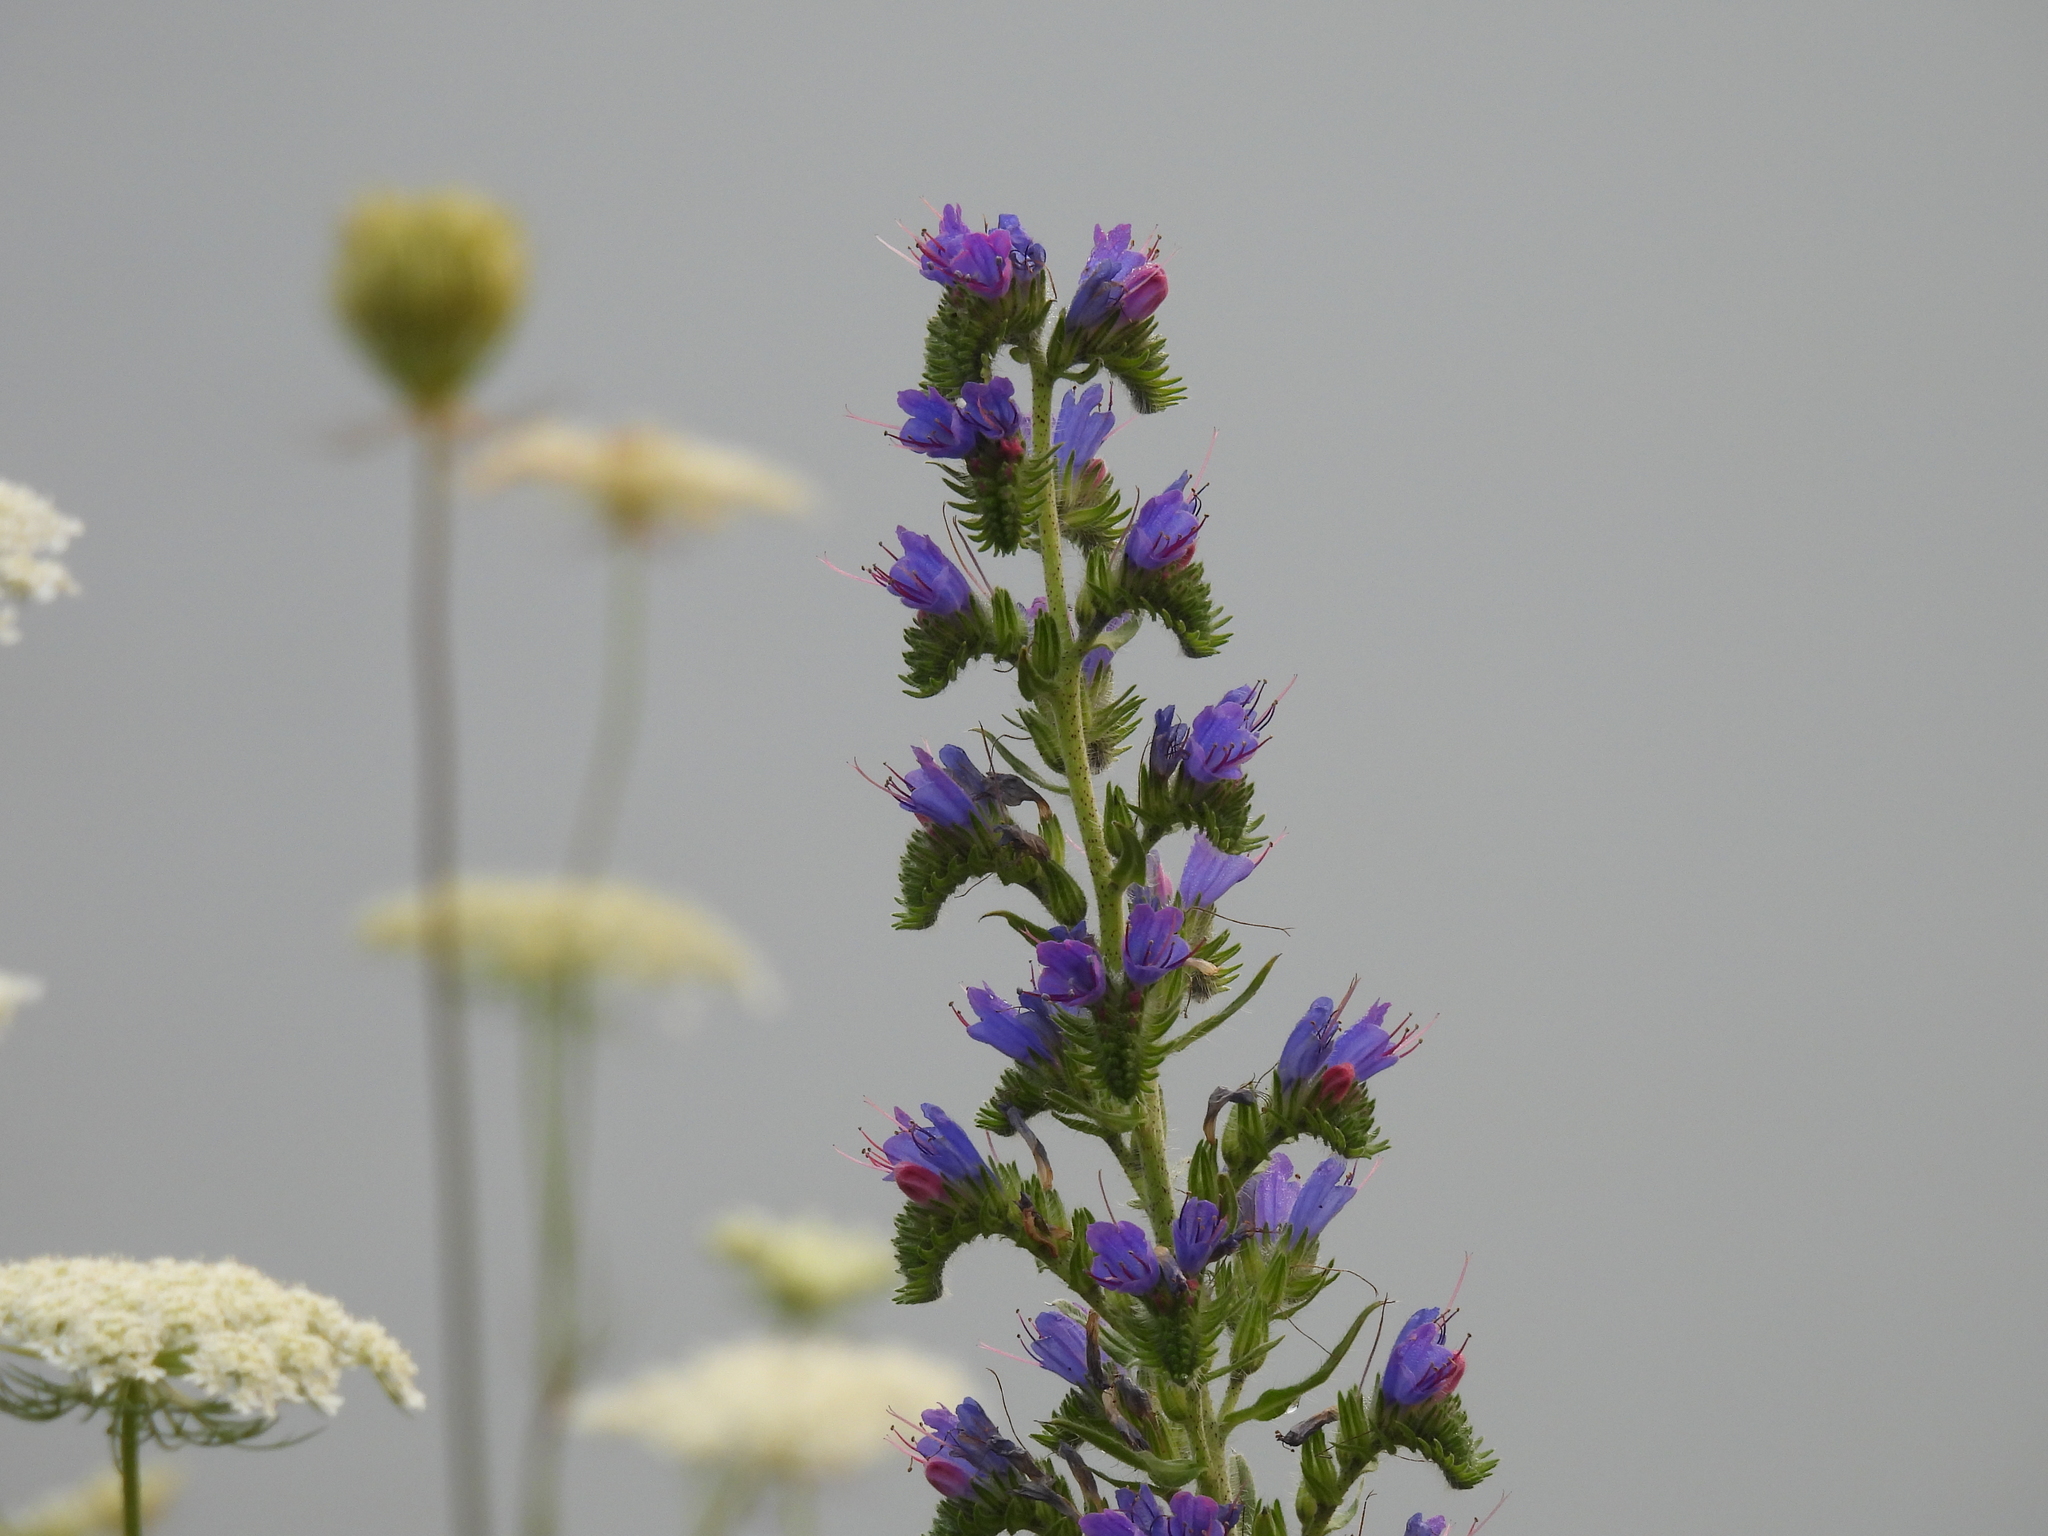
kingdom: Plantae
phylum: Tracheophyta
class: Magnoliopsida
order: Boraginales
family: Boraginaceae
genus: Echium
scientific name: Echium vulgare
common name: Common viper's bugloss
